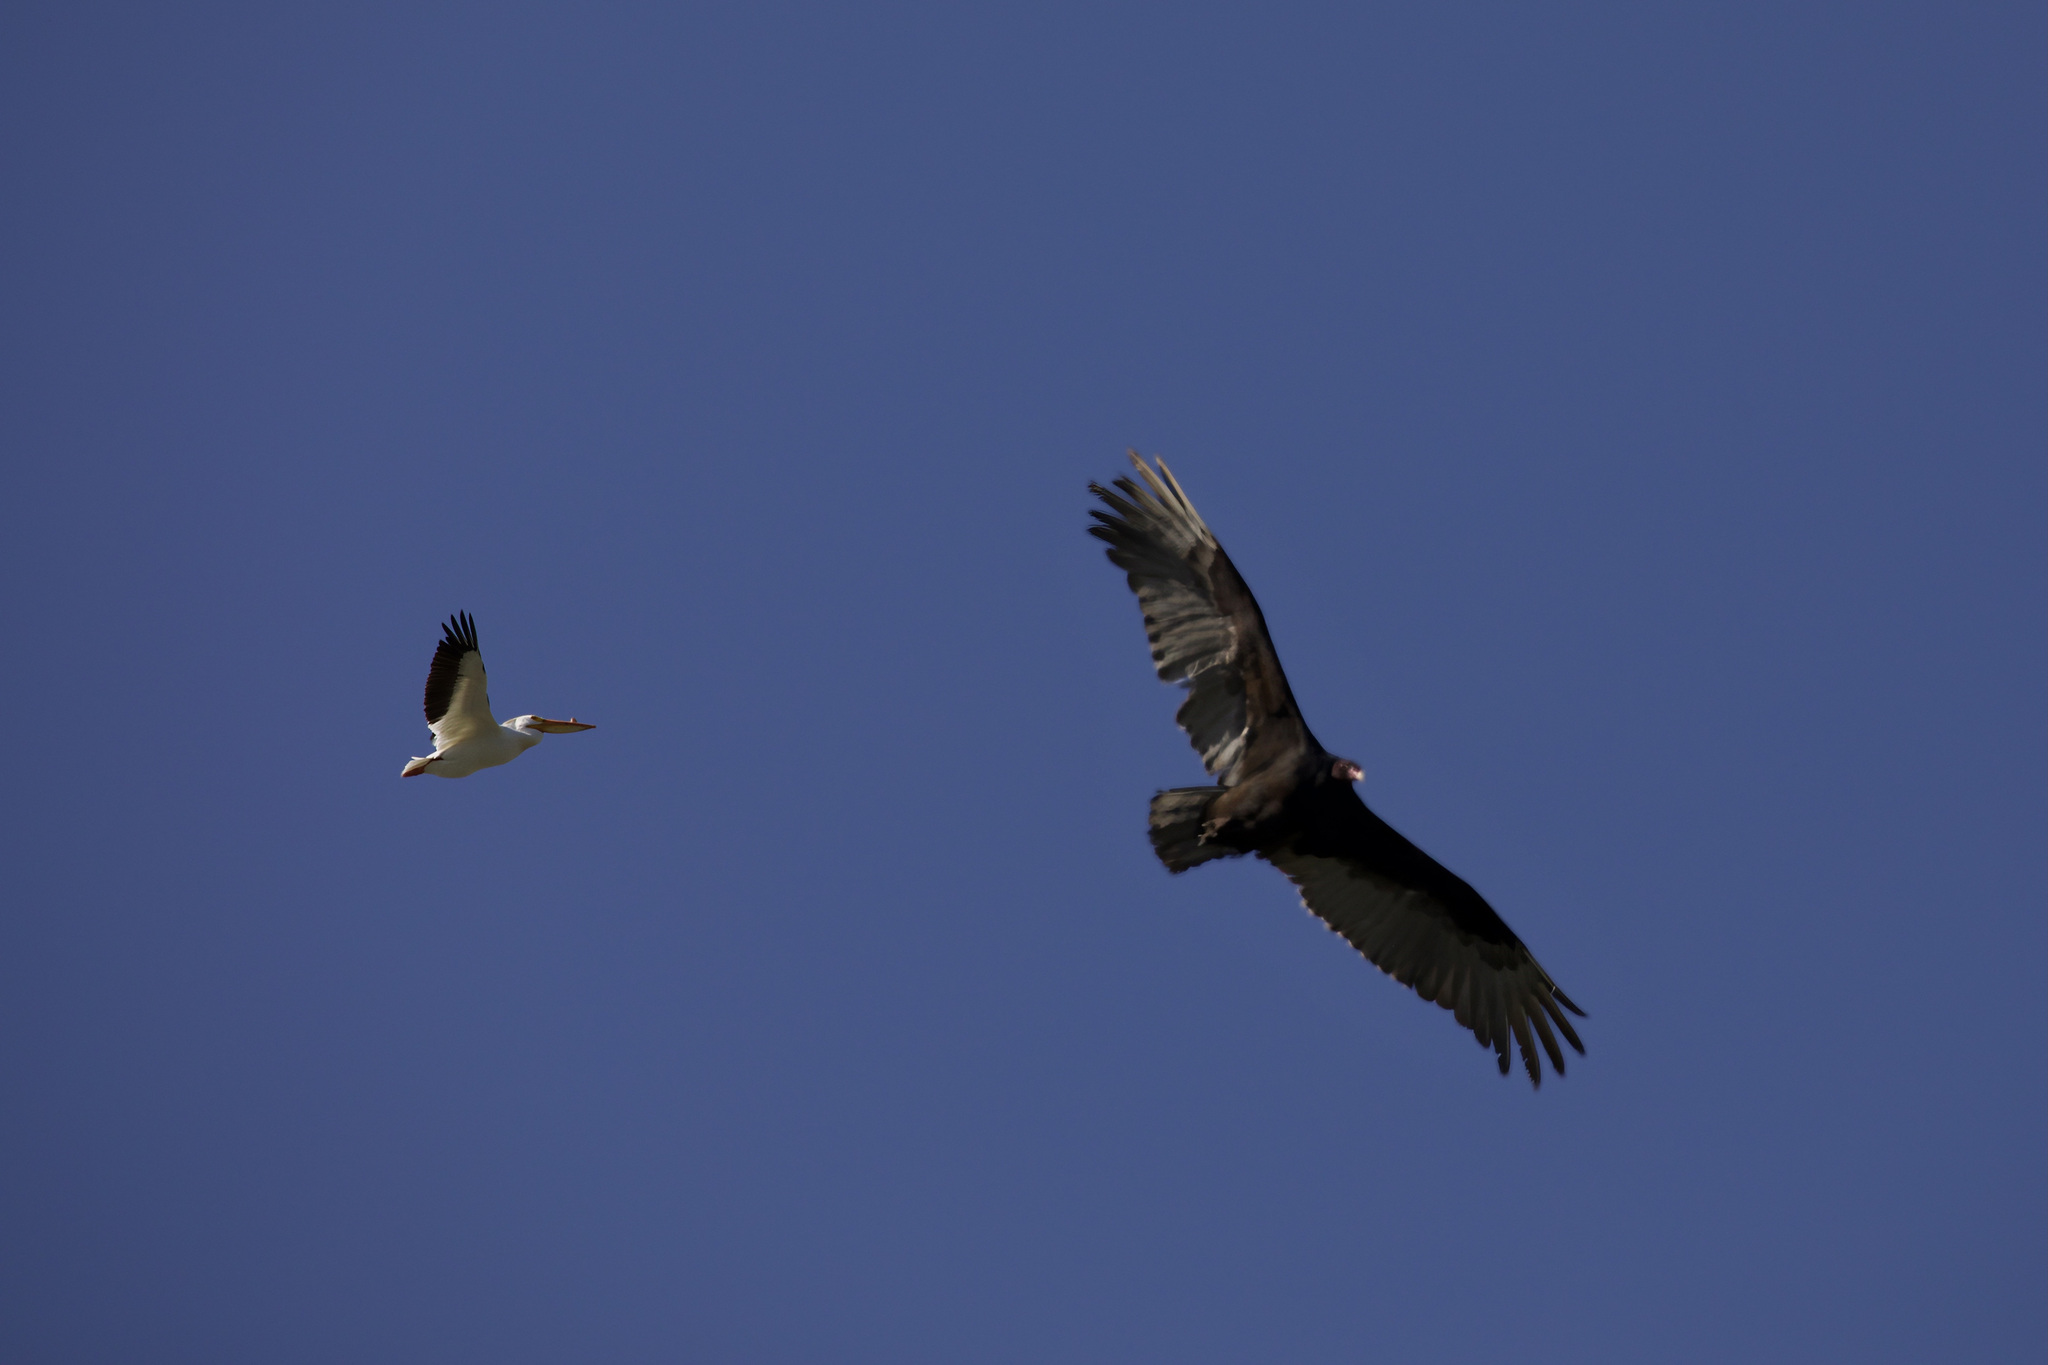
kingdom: Animalia
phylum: Chordata
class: Aves
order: Accipitriformes
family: Cathartidae
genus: Cathartes
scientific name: Cathartes aura
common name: Turkey vulture
